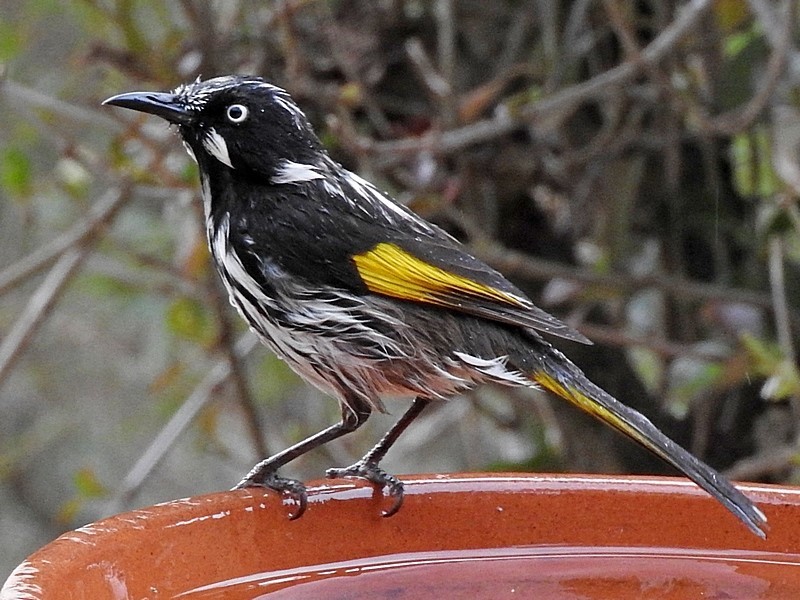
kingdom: Animalia
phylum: Chordata
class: Aves
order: Passeriformes
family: Meliphagidae
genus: Phylidonyris
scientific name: Phylidonyris novaehollandiae
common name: New holland honeyeater
